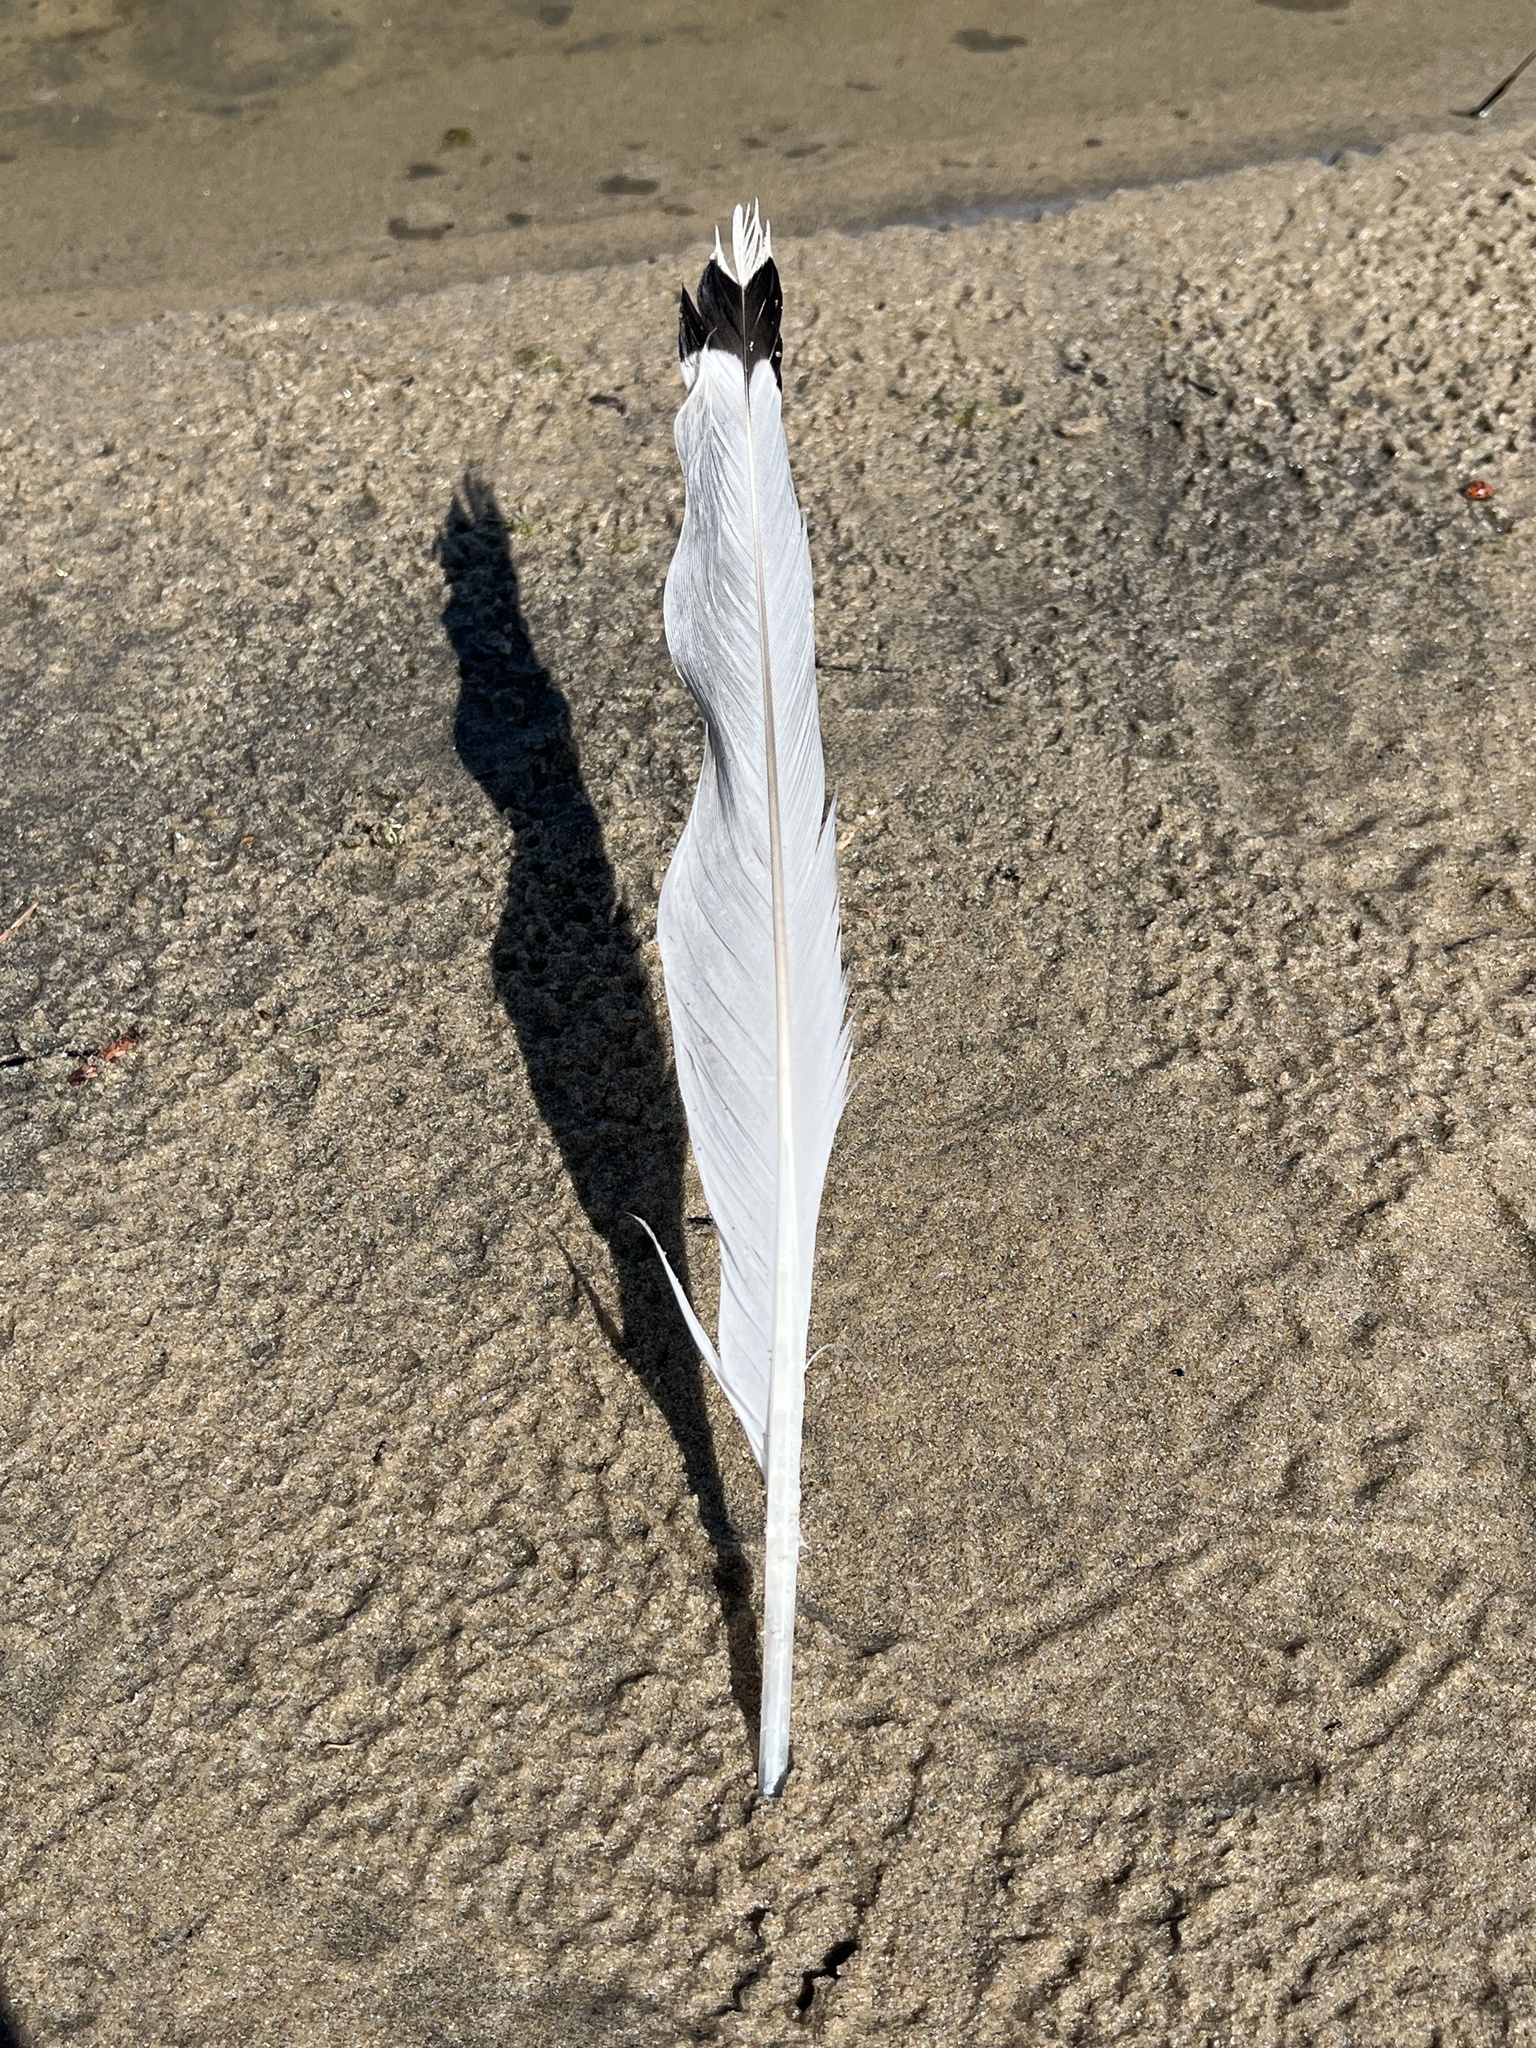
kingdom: Animalia
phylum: Chordata
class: Aves
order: Charadriiformes
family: Laridae
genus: Larus
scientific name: Larus delawarensis
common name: Ring-billed gull
